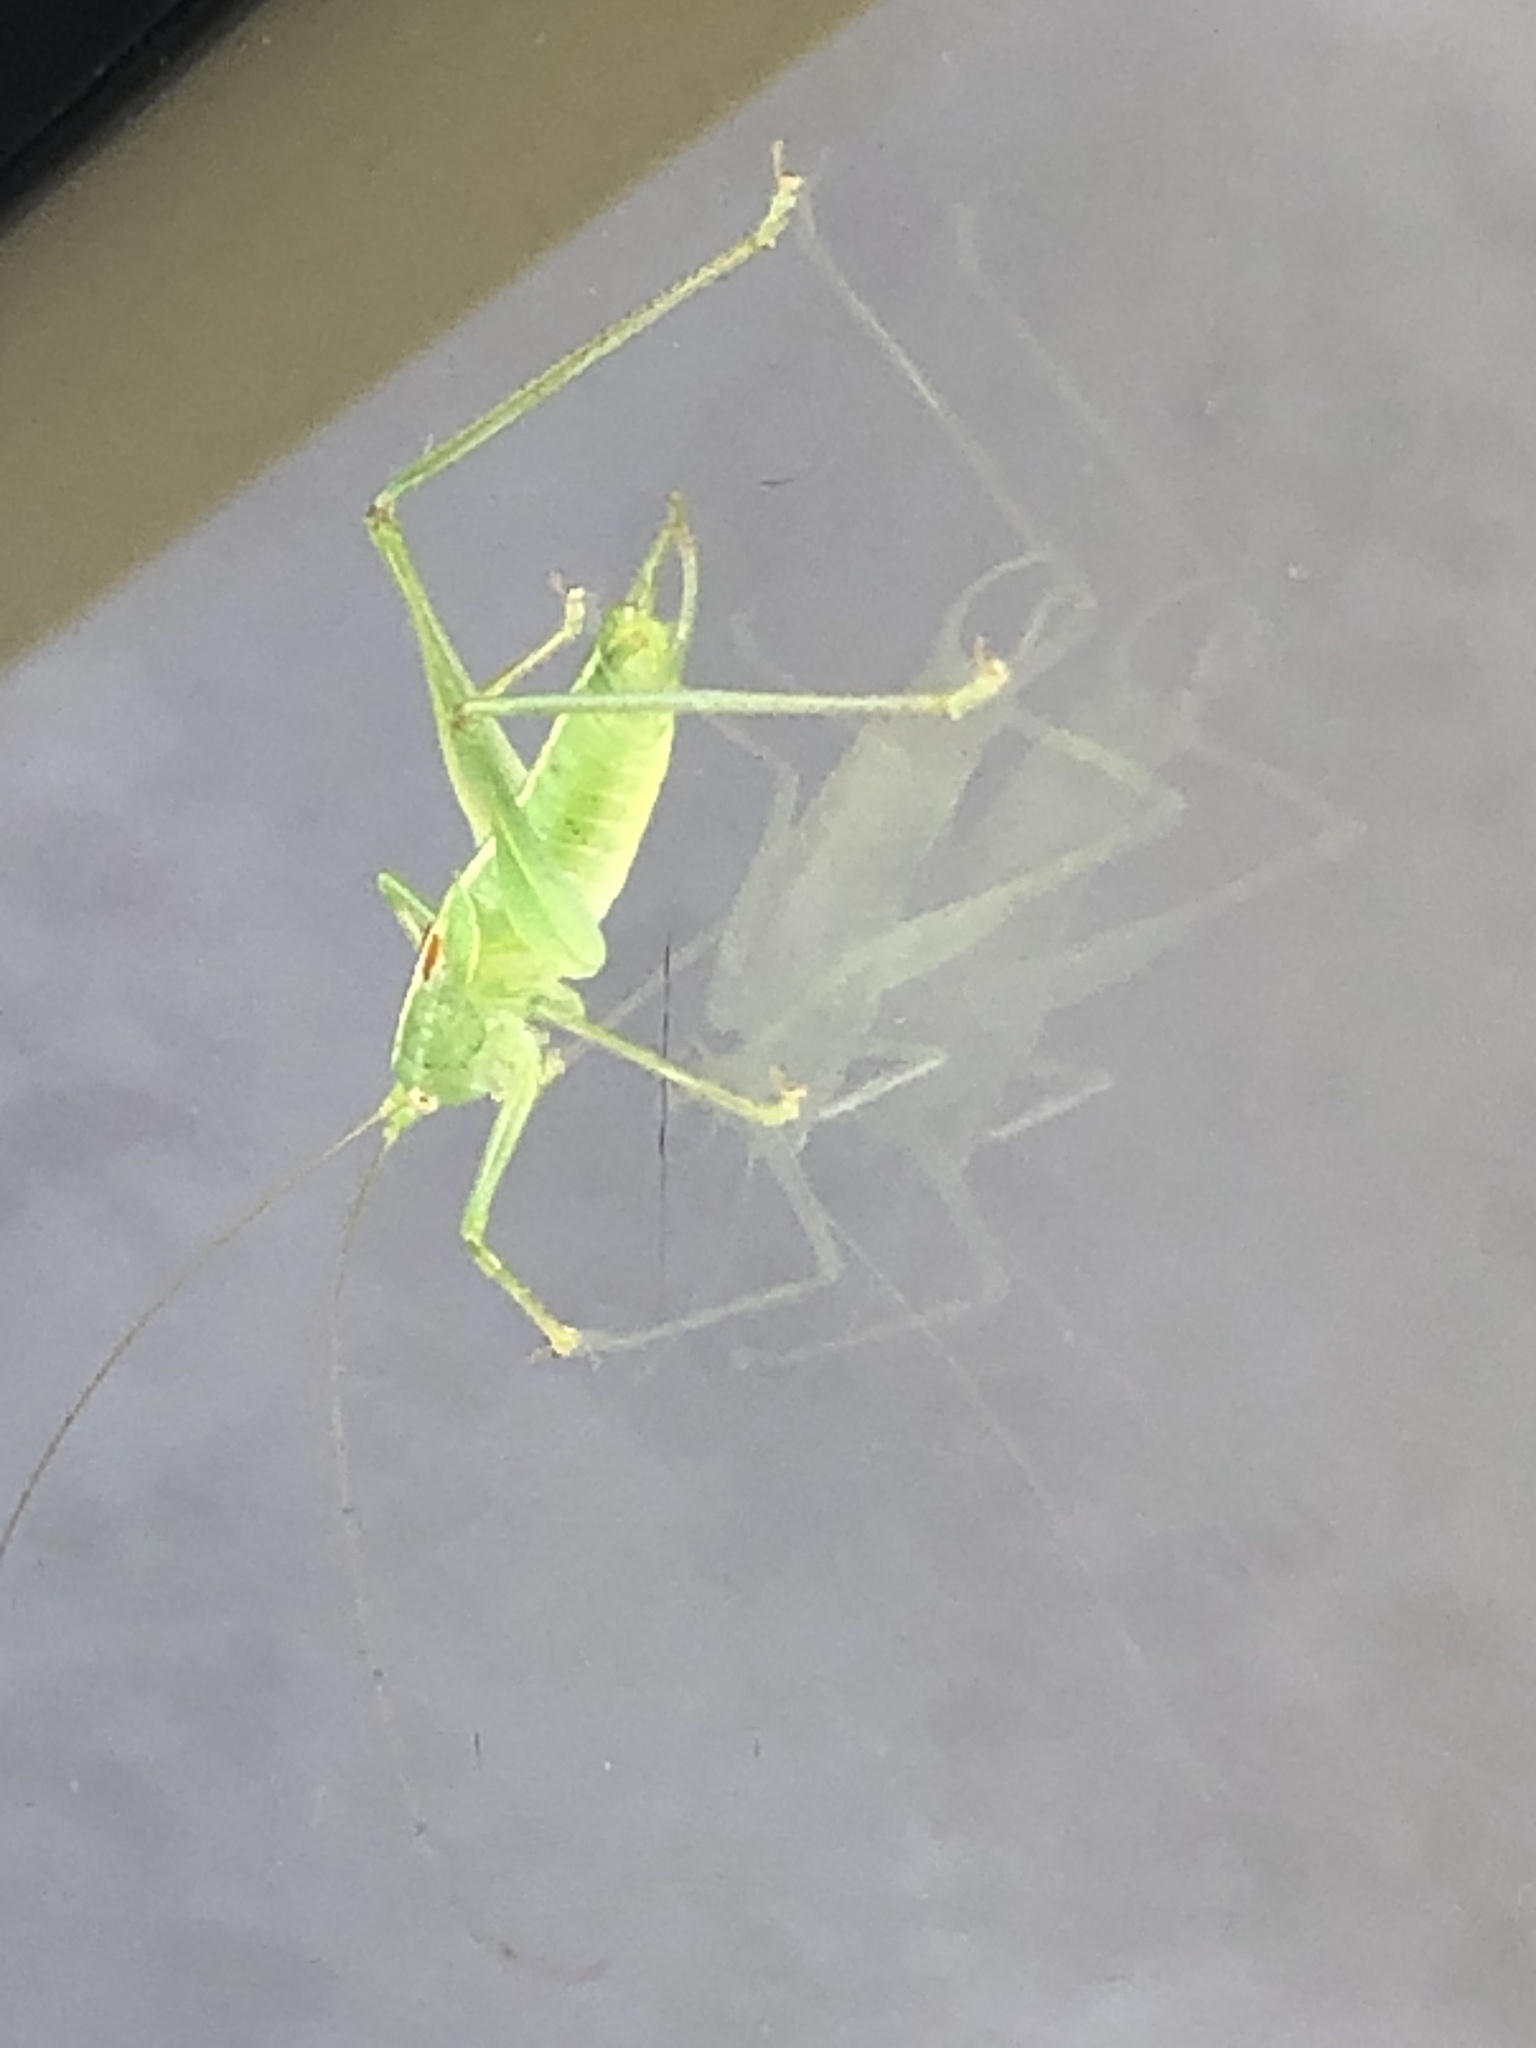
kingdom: Animalia
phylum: Arthropoda
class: Insecta
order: Orthoptera
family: Tettigoniidae
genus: Meconema
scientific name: Meconema meridionale
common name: Southern oak bush-cricket
